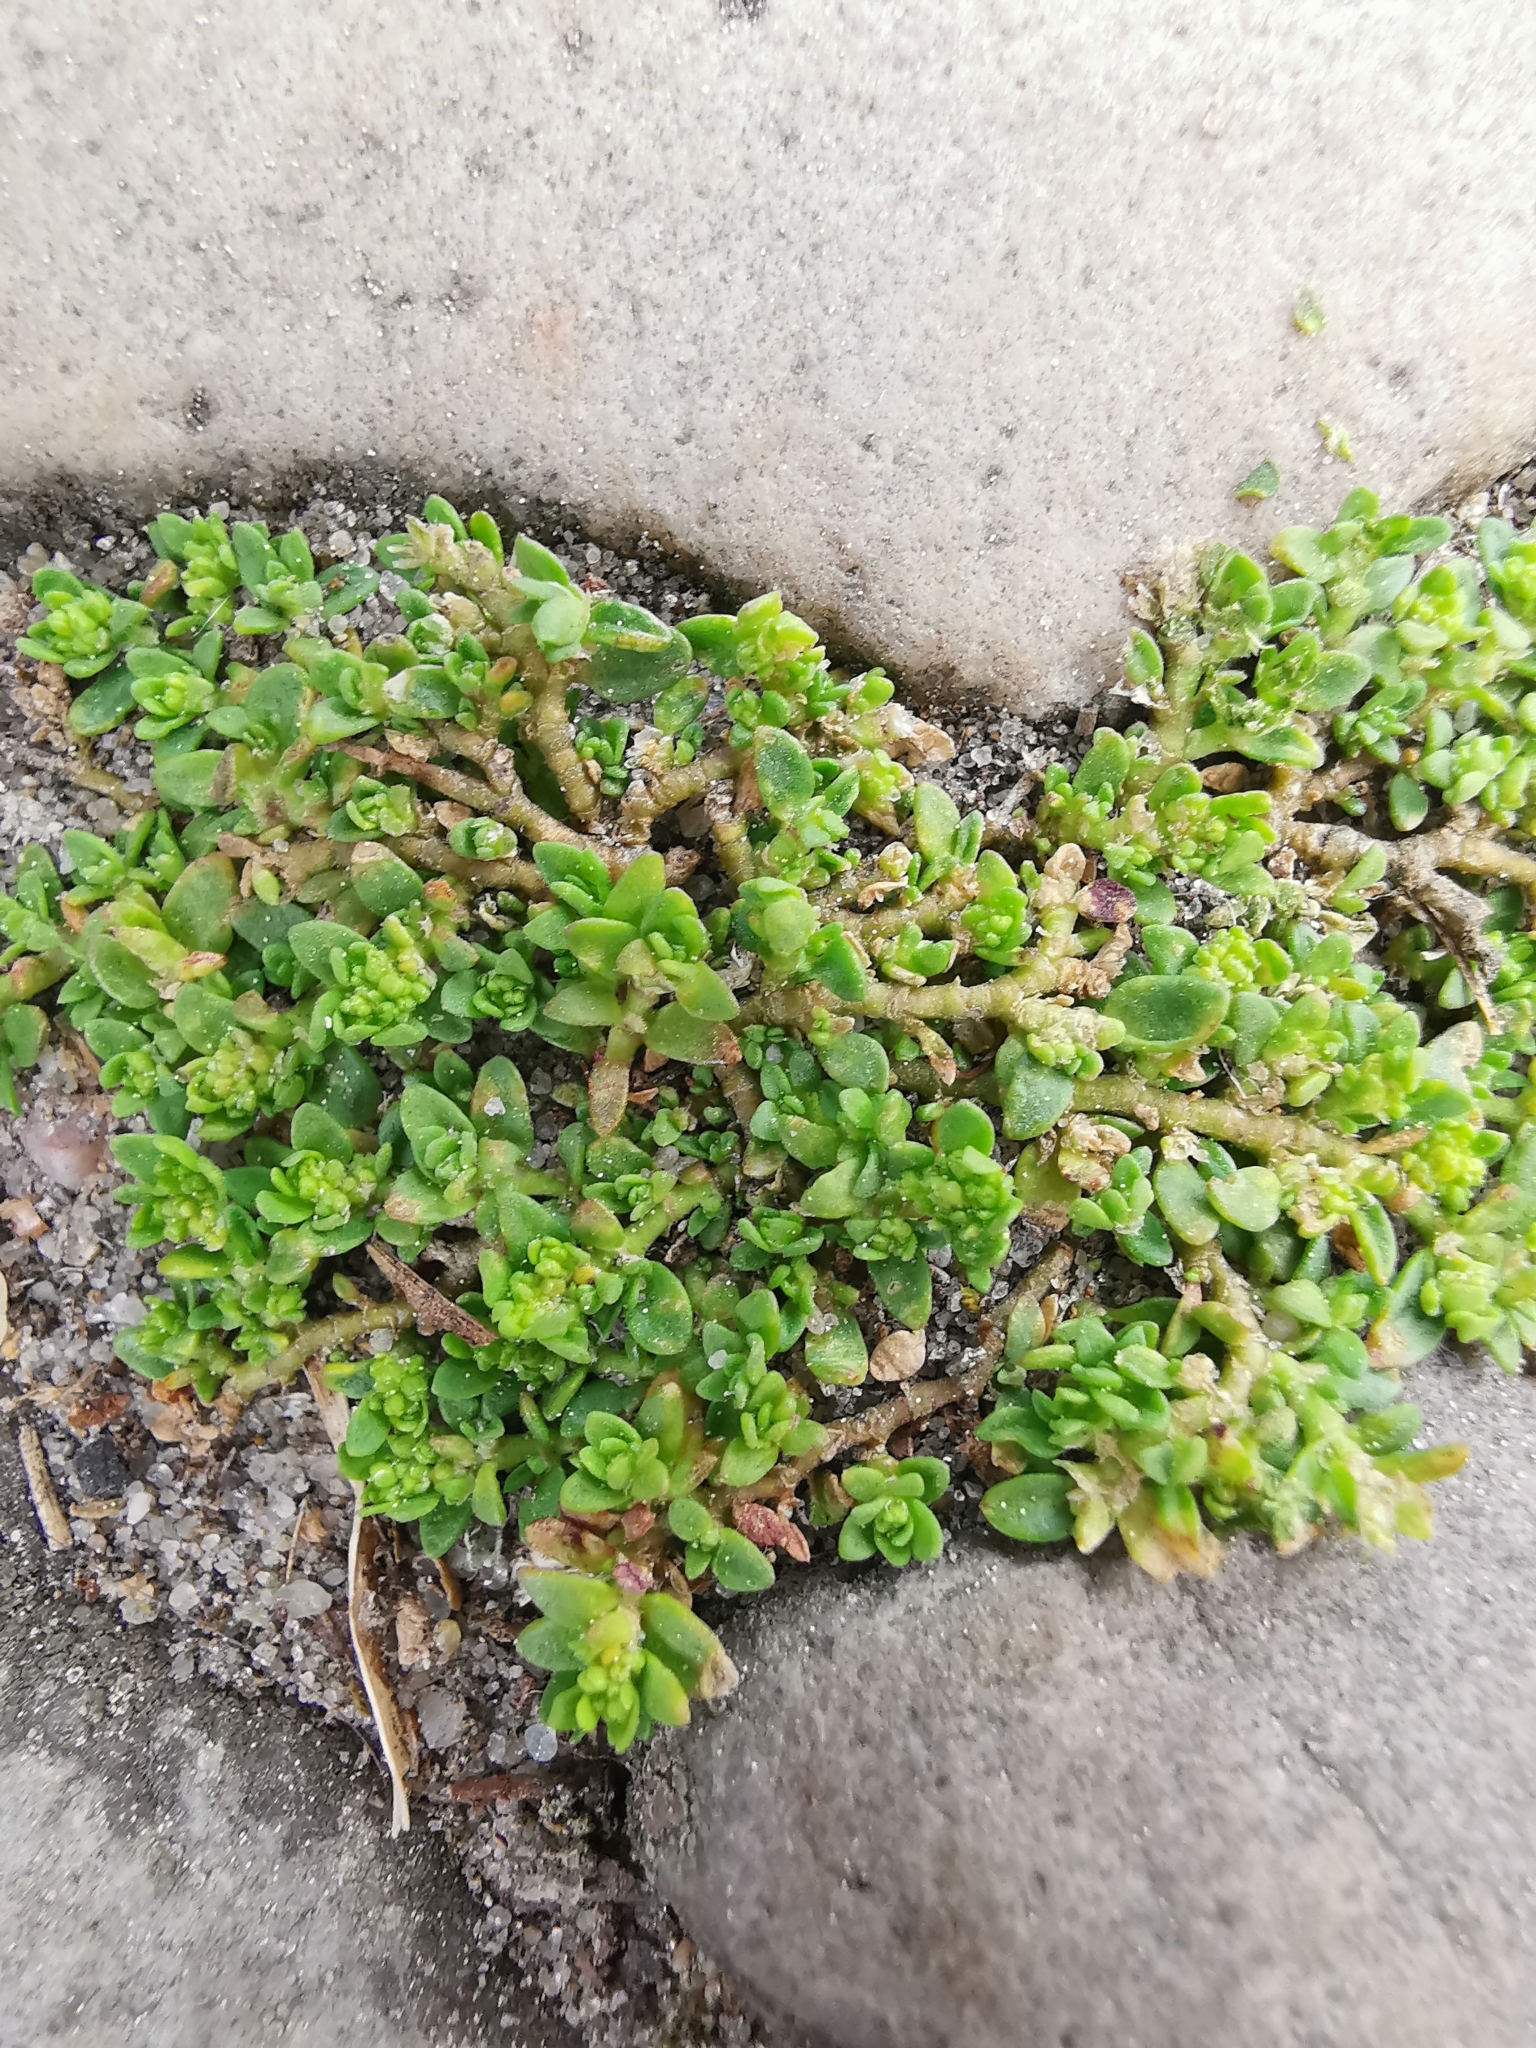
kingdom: Plantae
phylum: Tracheophyta
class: Magnoliopsida
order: Caryophyllales
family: Caryophyllaceae
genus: Herniaria
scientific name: Herniaria glabra
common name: Smooth rupturewort
